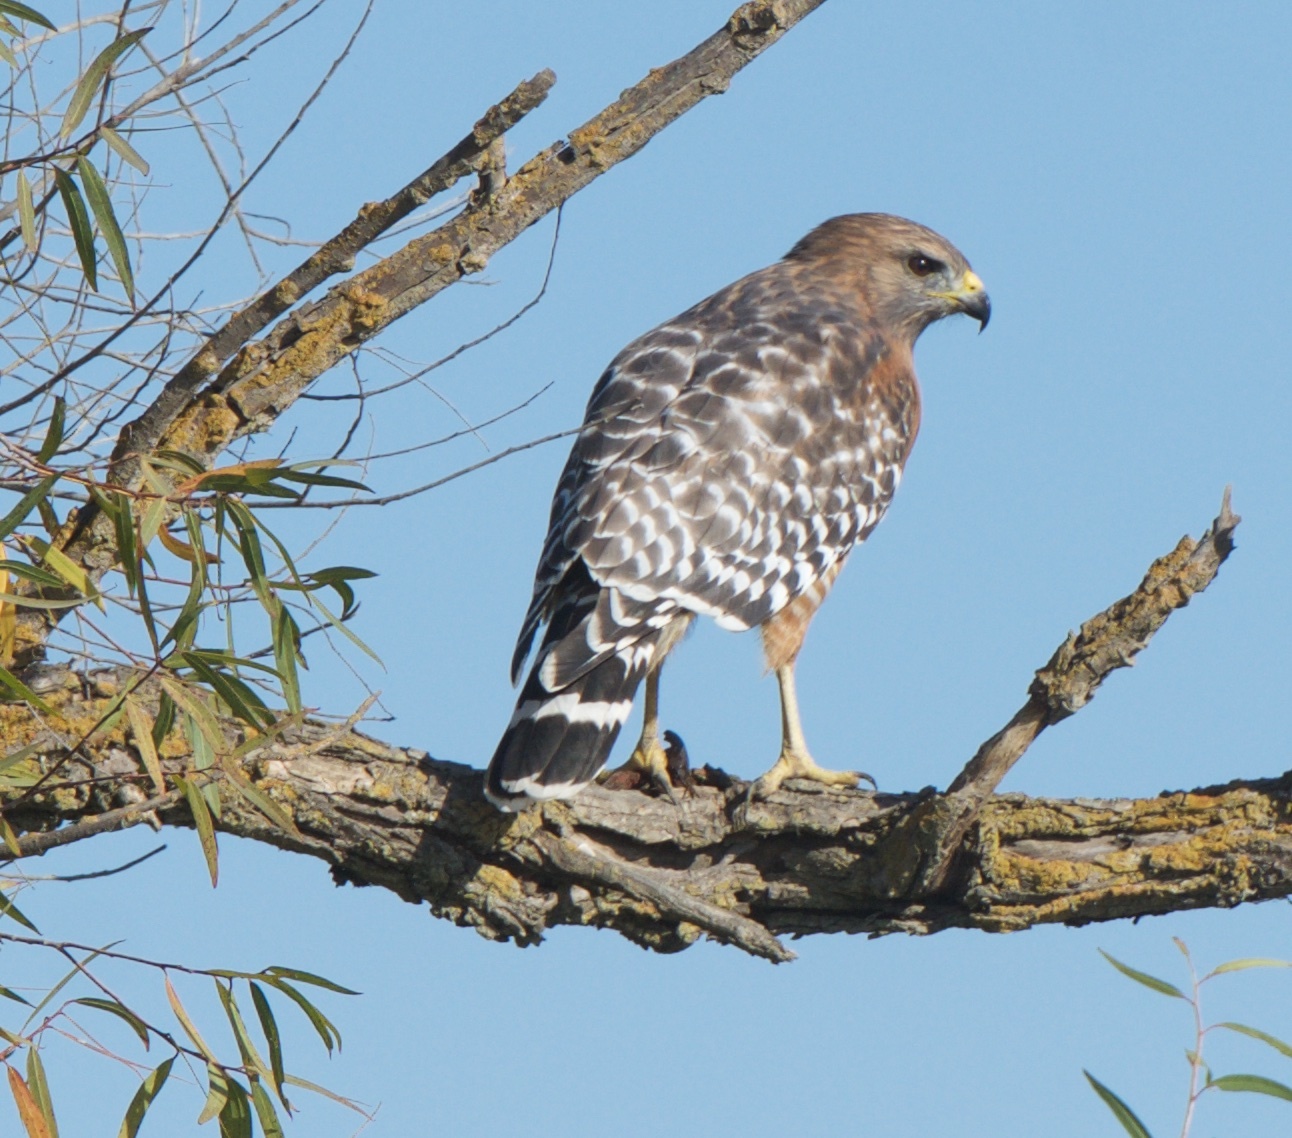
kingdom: Animalia
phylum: Chordata
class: Aves
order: Accipitriformes
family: Accipitridae
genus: Buteo
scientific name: Buteo lineatus
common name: Red-shouldered hawk
